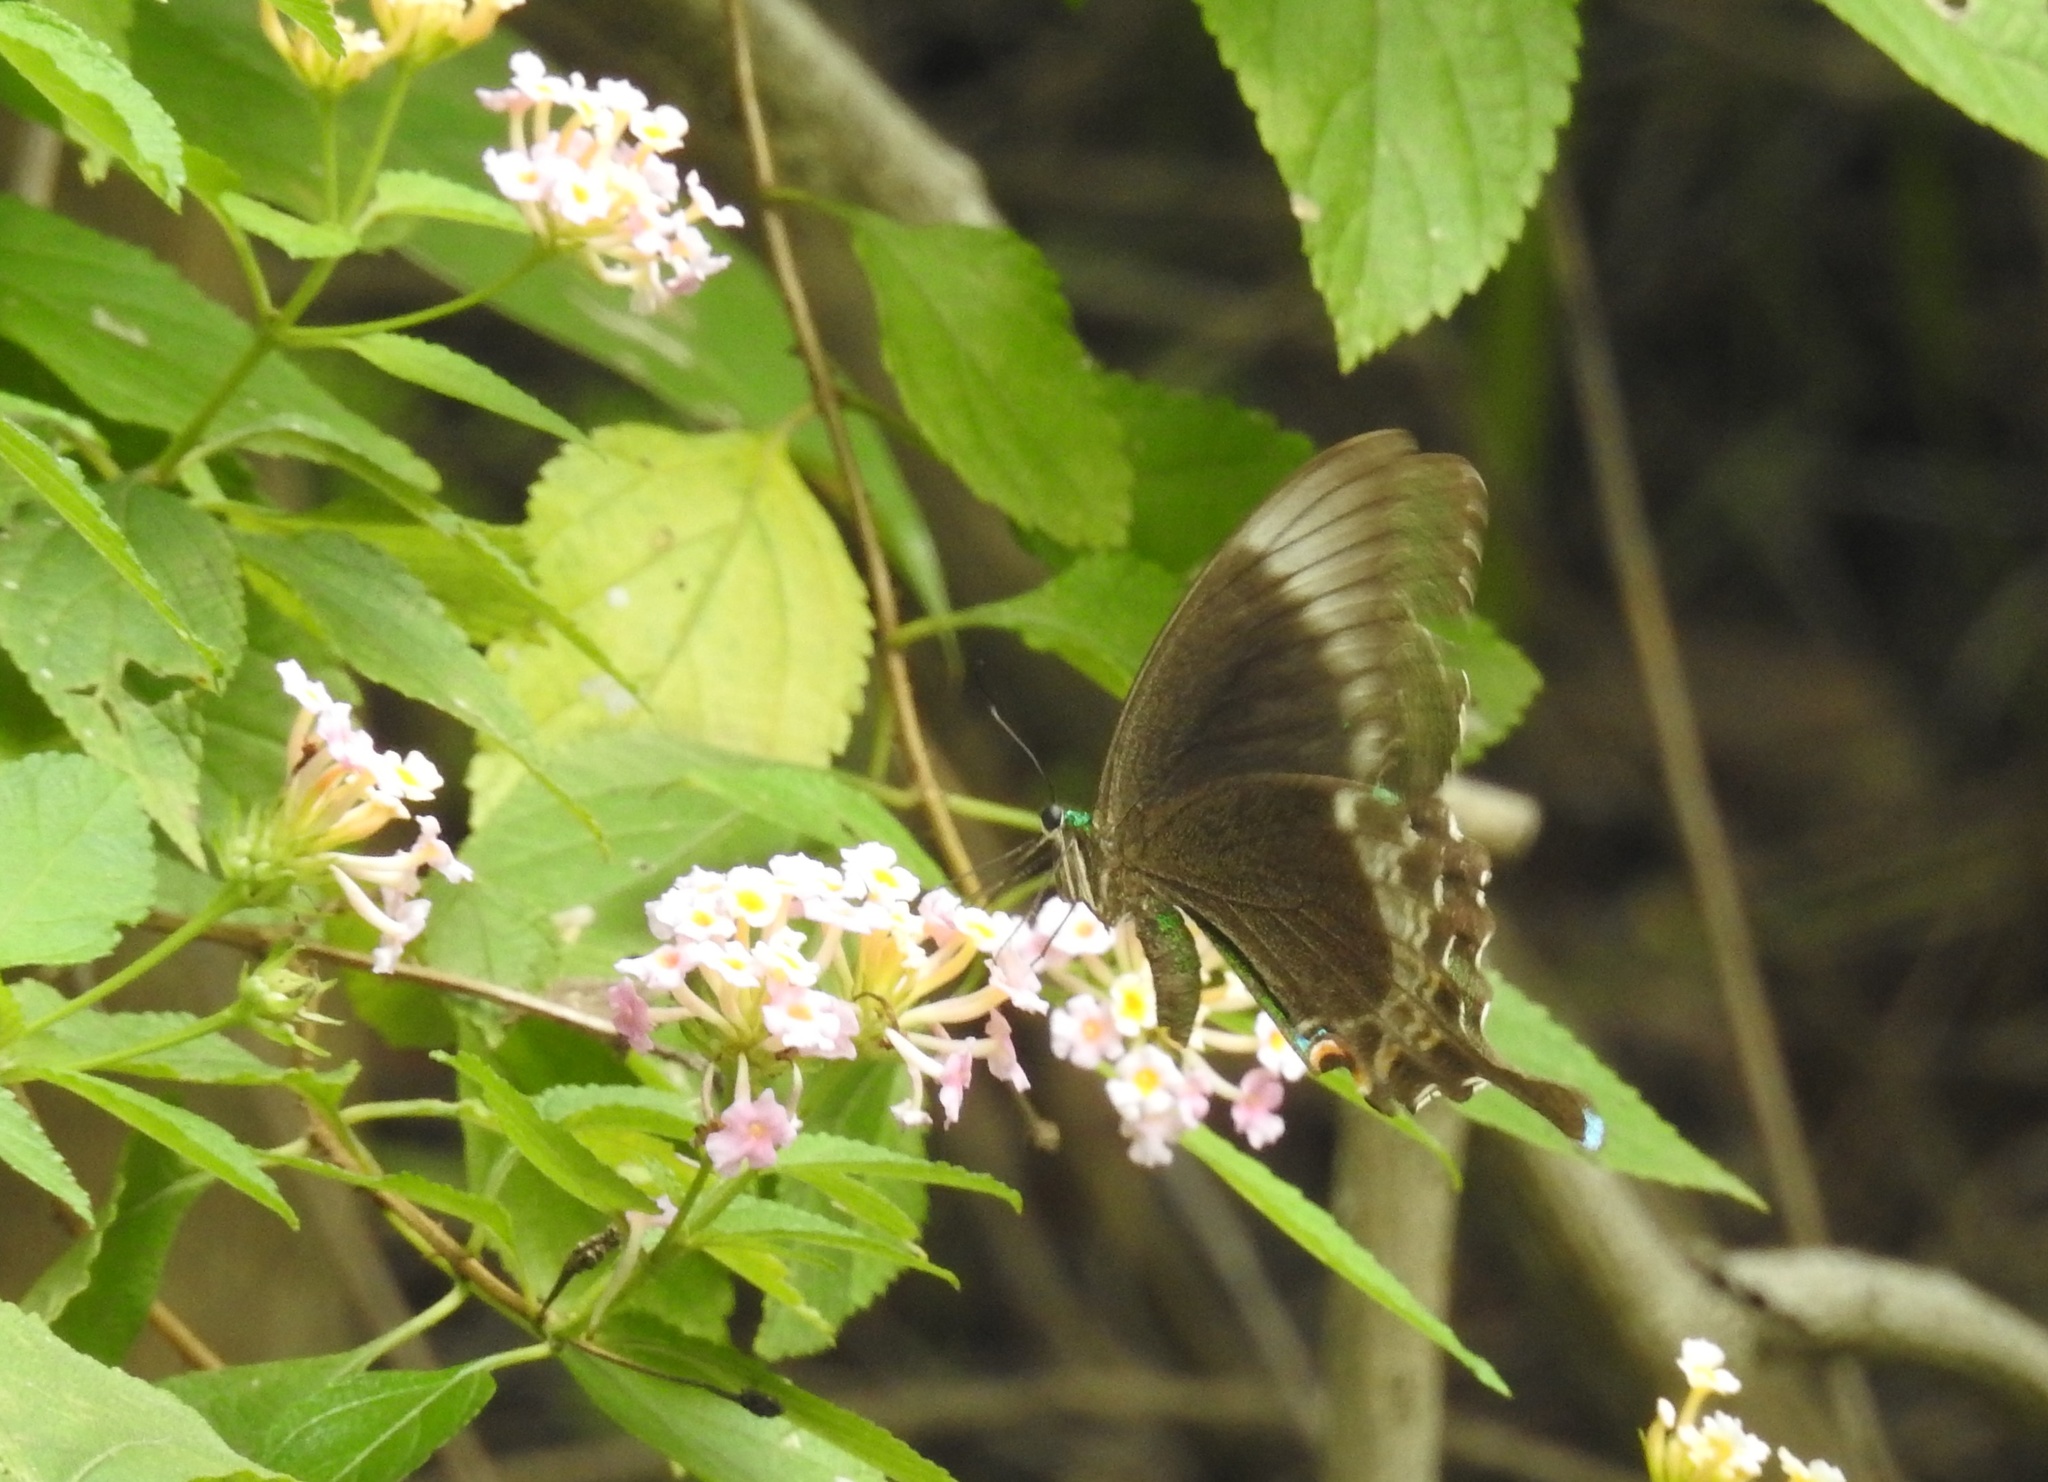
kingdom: Animalia
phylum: Arthropoda
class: Insecta
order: Lepidoptera
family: Papilionidae
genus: Papilio
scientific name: Papilio crino
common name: Common banded peacock
